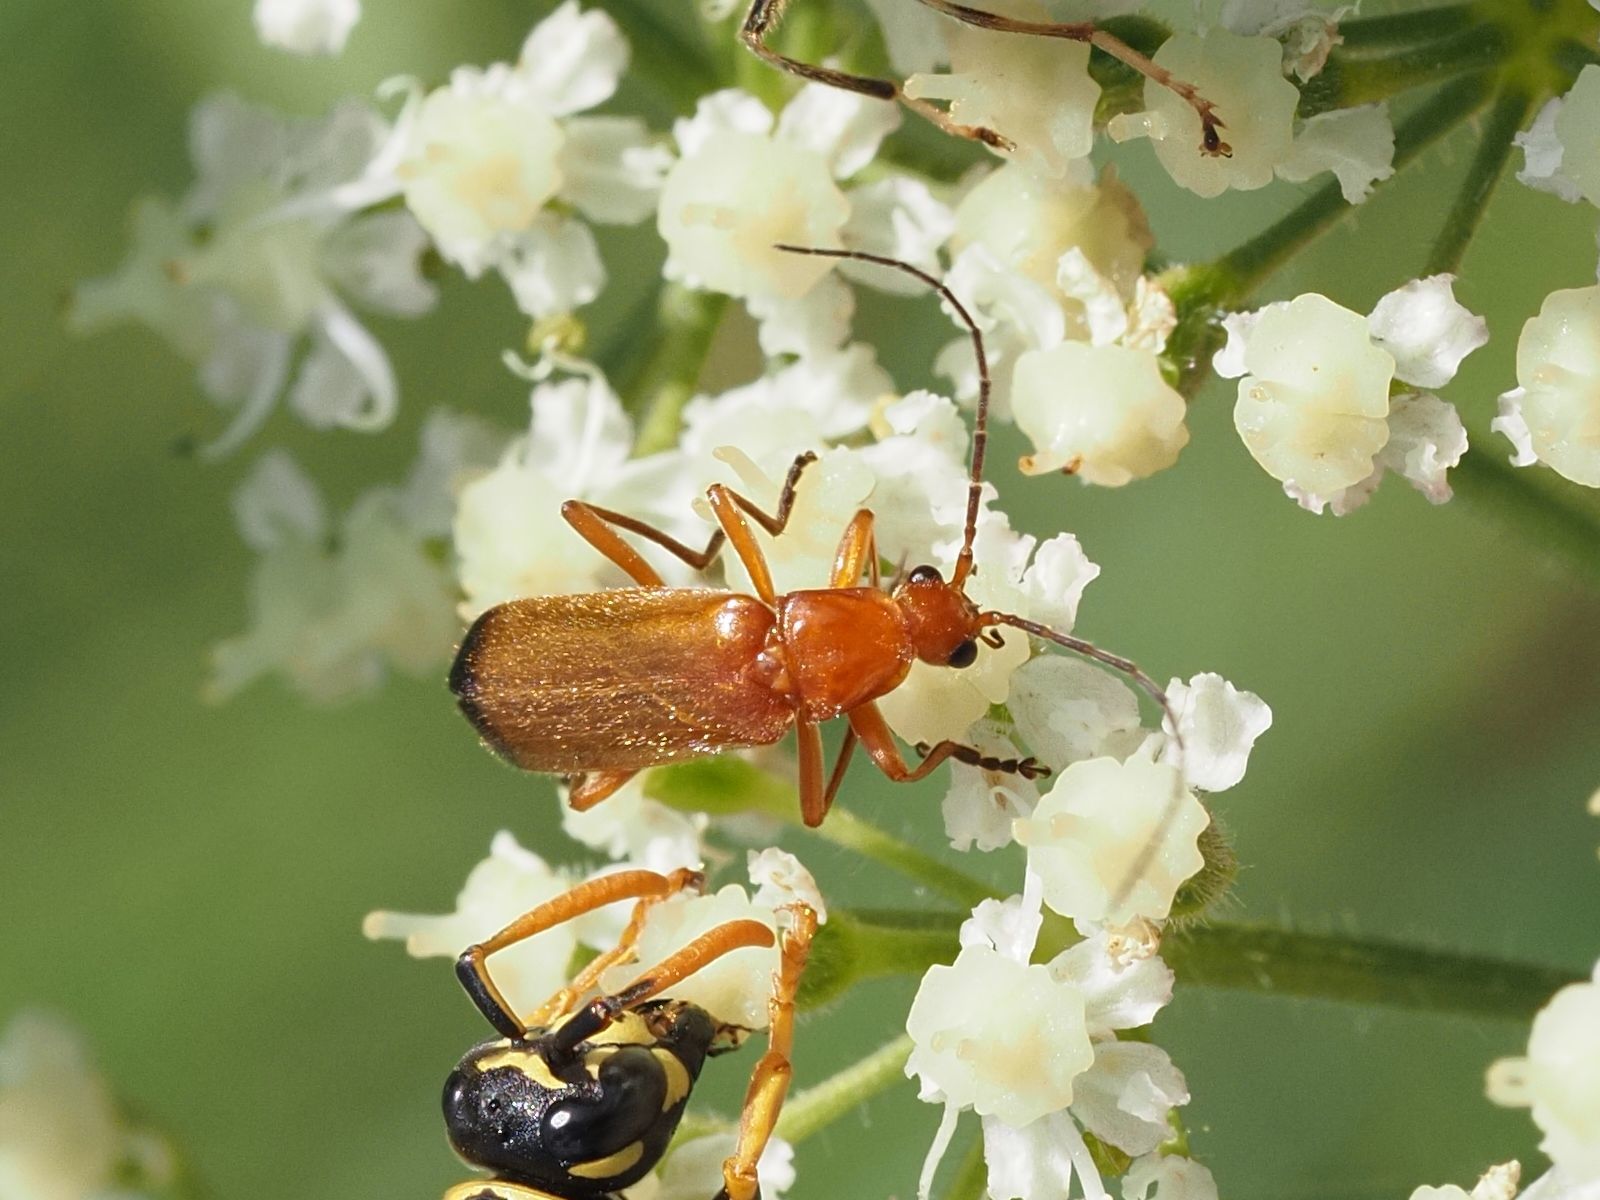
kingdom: Animalia
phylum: Arthropoda
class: Insecta
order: Coleoptera
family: Cantharidae
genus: Rhagonycha
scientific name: Rhagonycha fulva
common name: Common red soldier beetle
